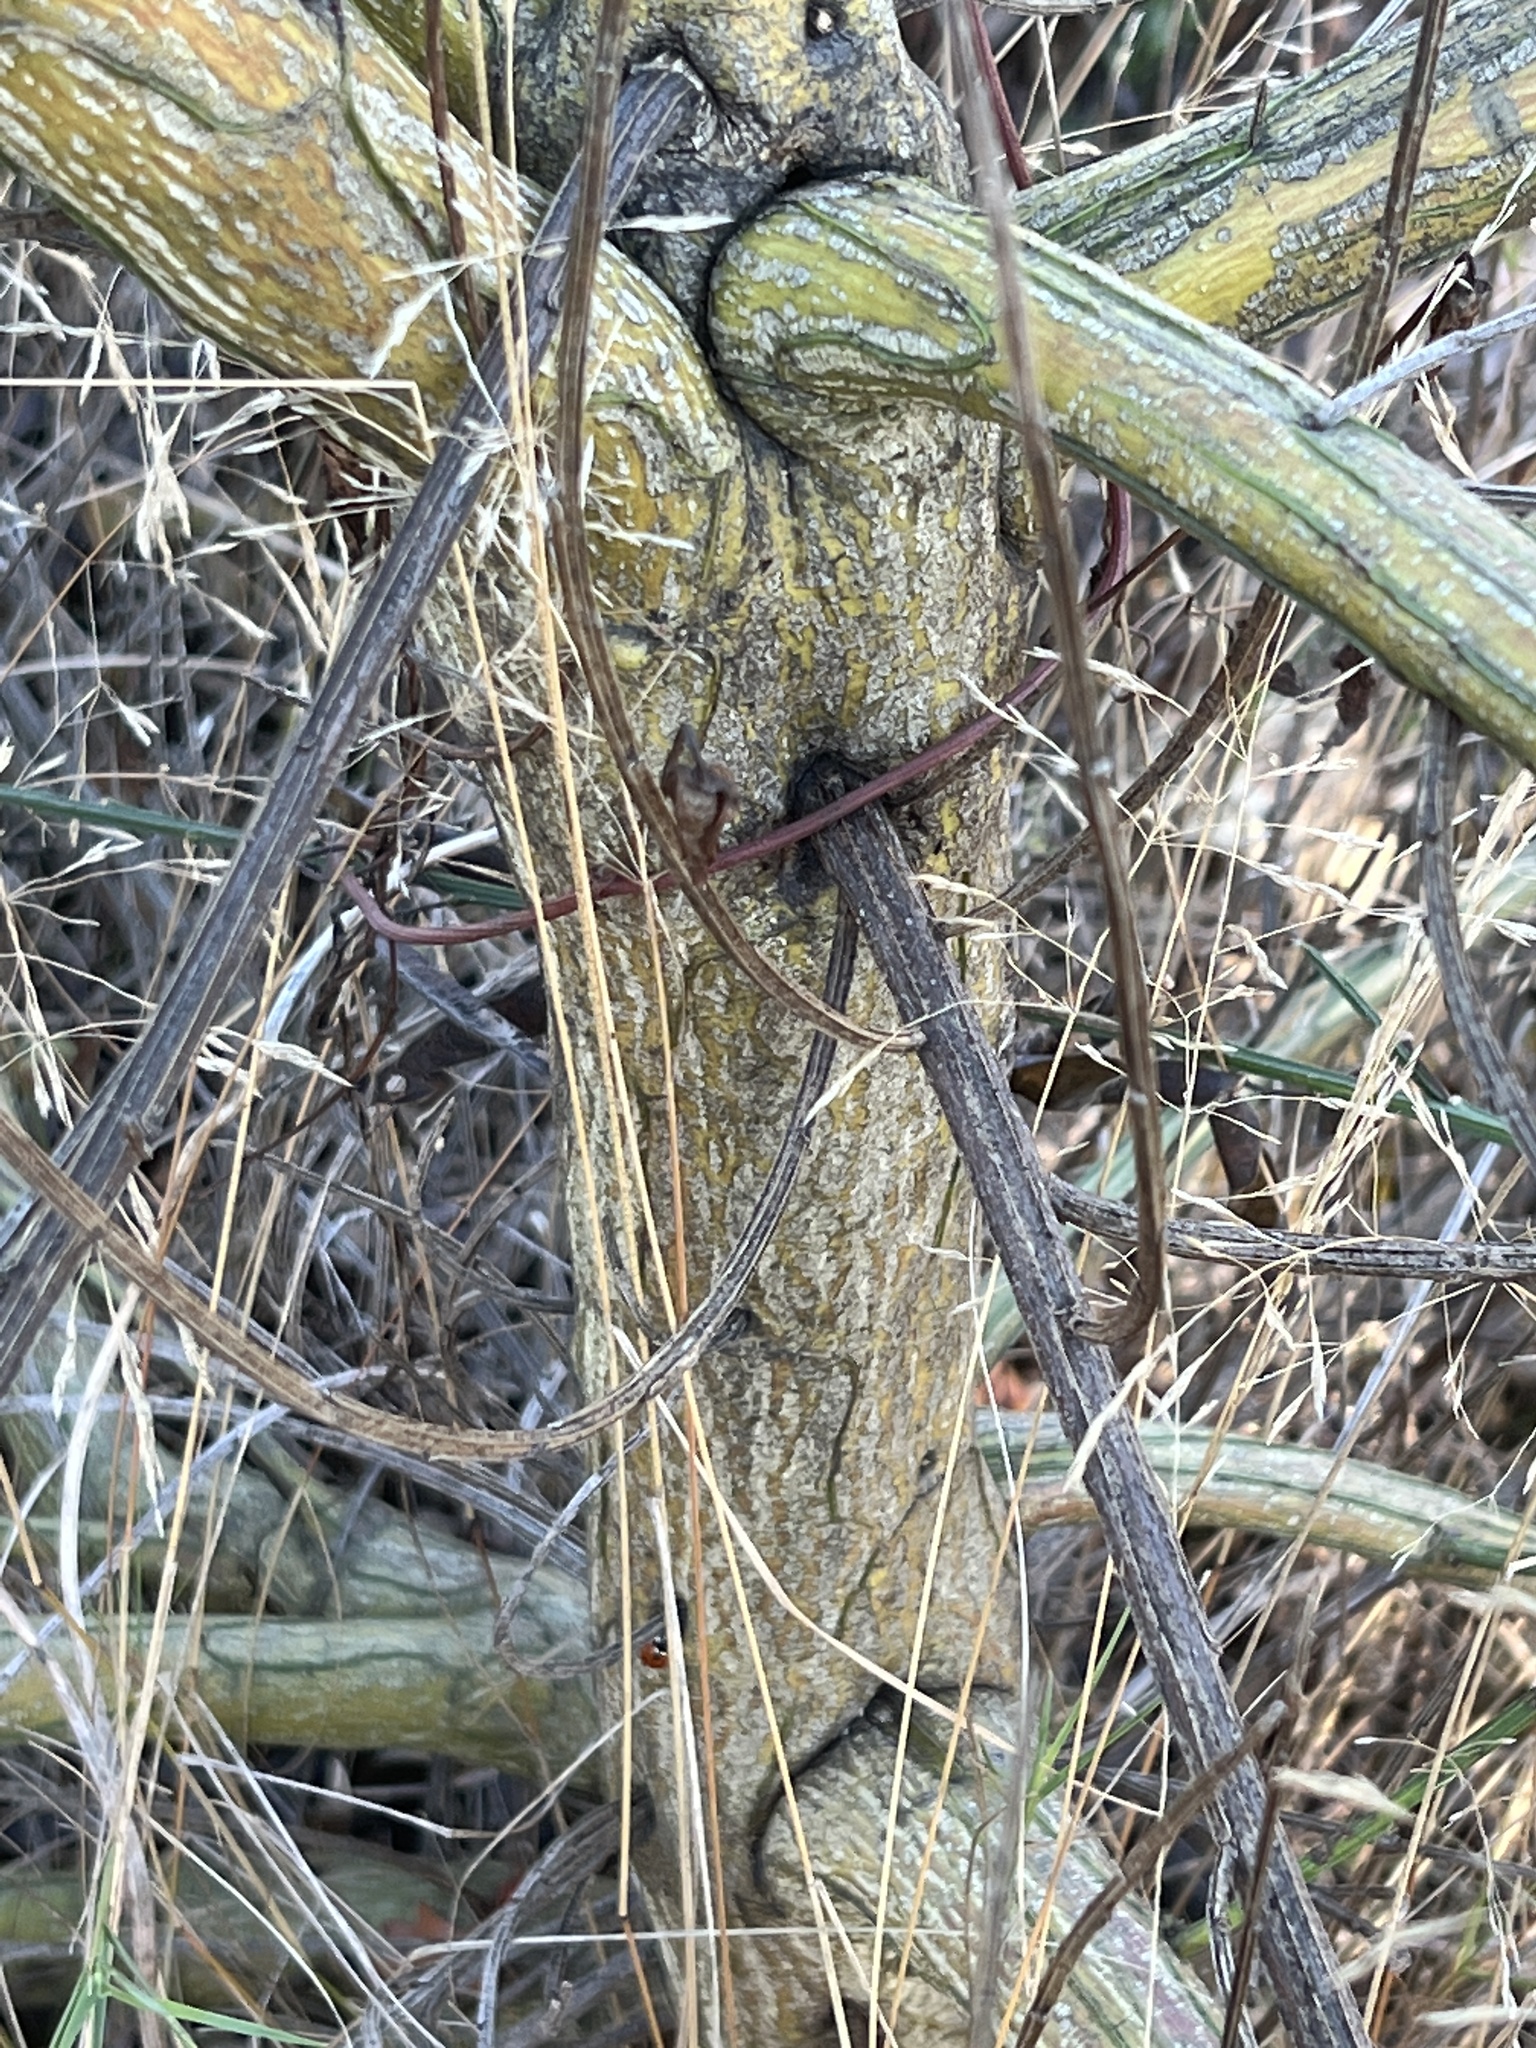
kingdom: Plantae
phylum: Tracheophyta
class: Magnoliopsida
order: Fabales
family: Fabaceae
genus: Cytisus
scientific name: Cytisus scoparius
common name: Scotch broom
